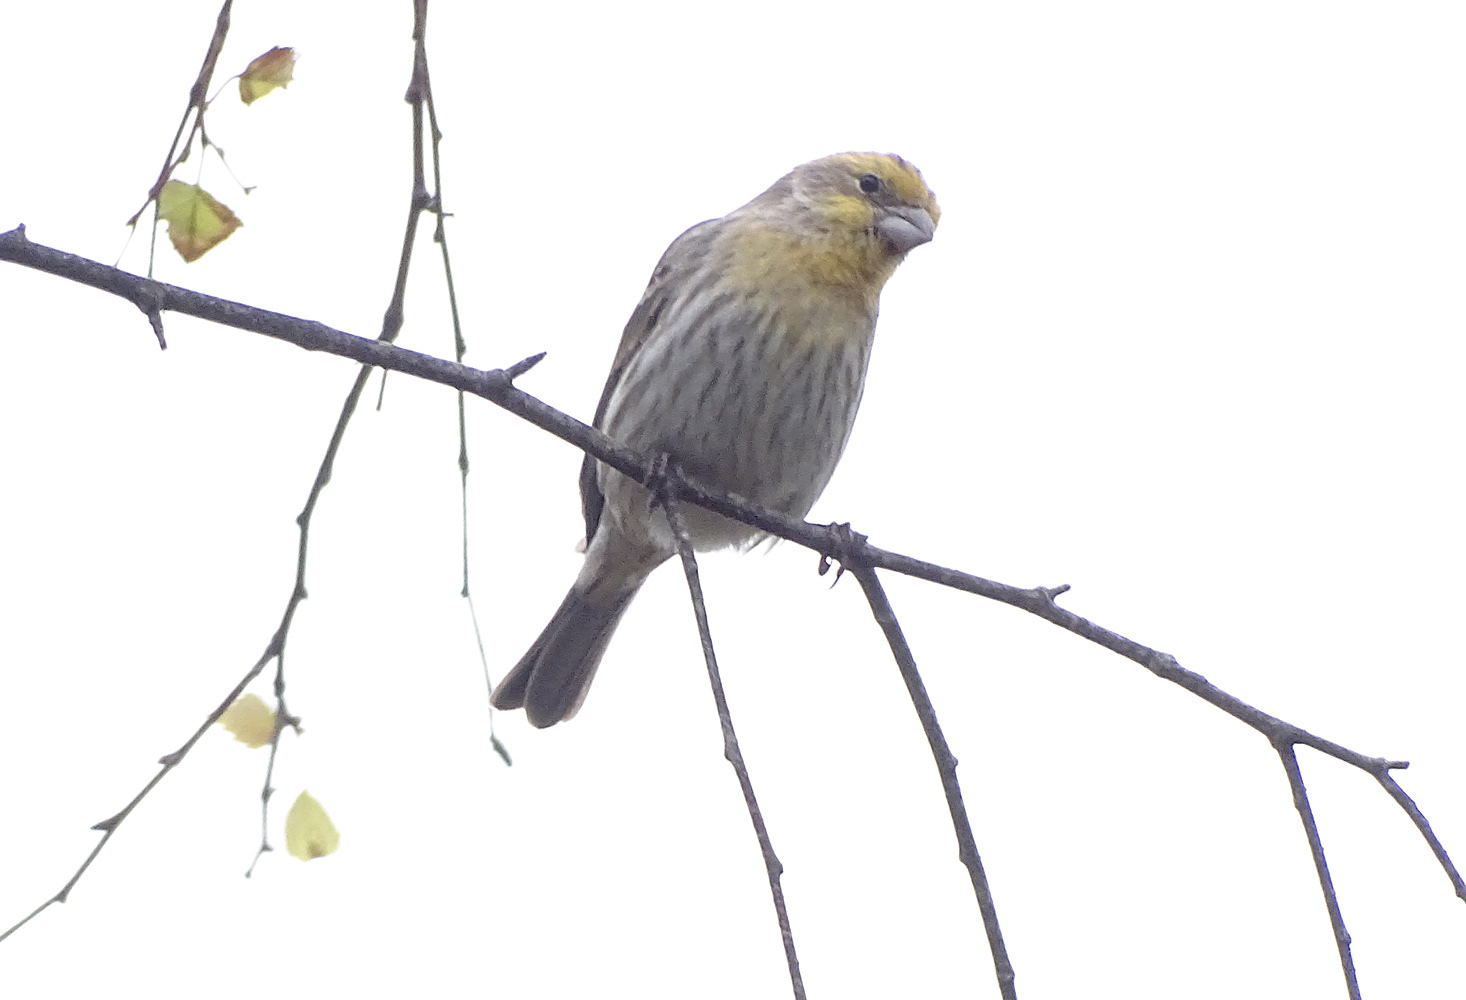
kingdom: Animalia
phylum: Chordata
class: Aves
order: Passeriformes
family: Fringillidae
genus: Haemorhous
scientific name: Haemorhous mexicanus
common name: House finch
